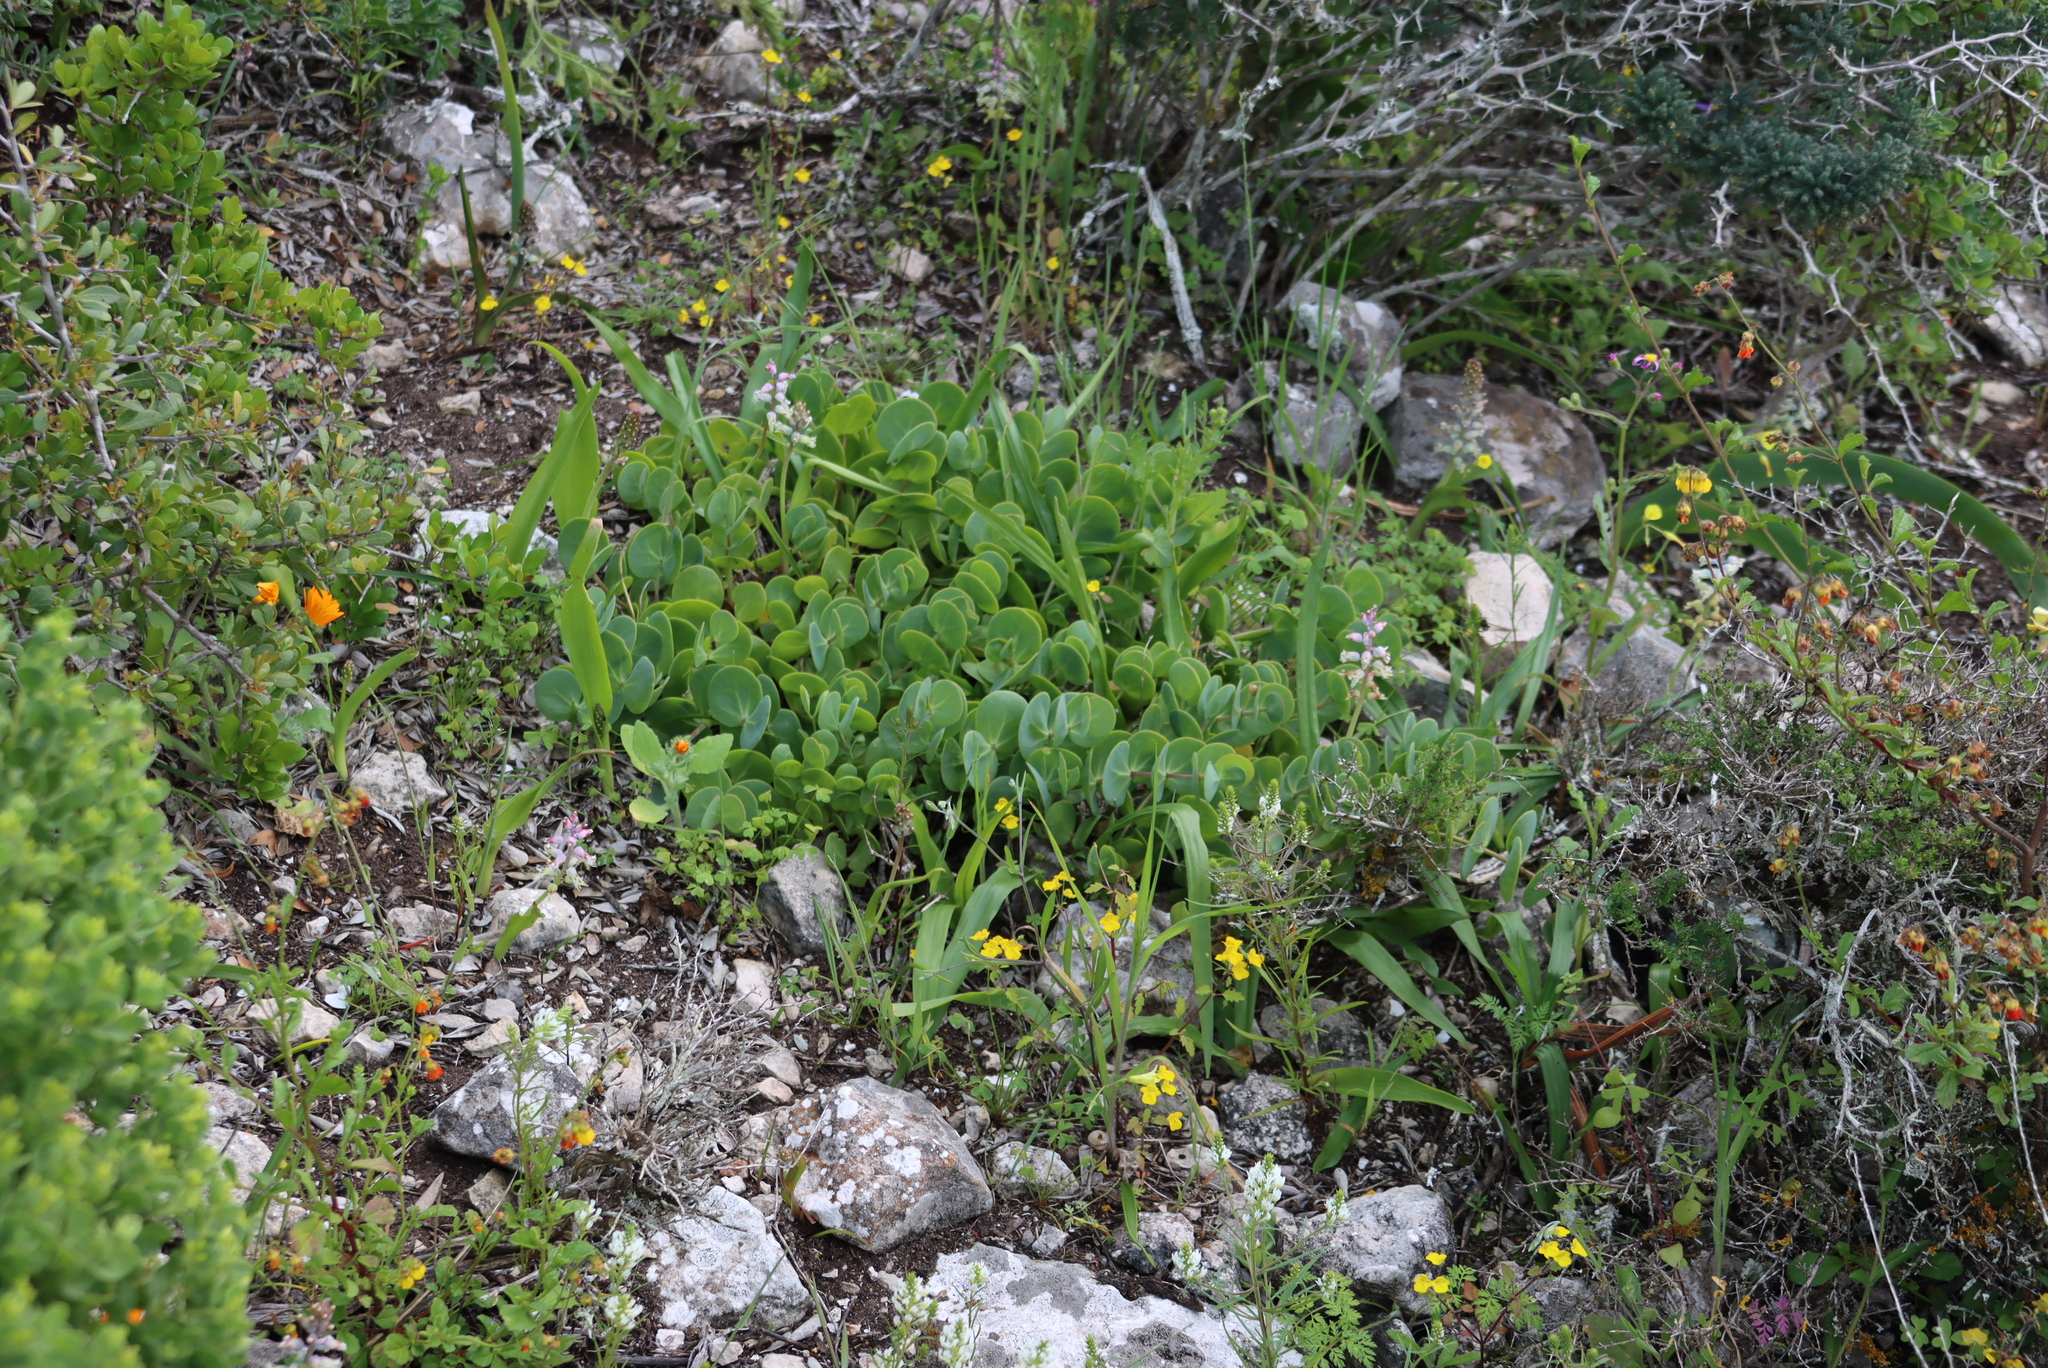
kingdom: Plantae
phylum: Tracheophyta
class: Magnoliopsida
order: Zygophyllales
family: Zygophyllaceae
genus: Roepera
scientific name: Roepera cordifolia
